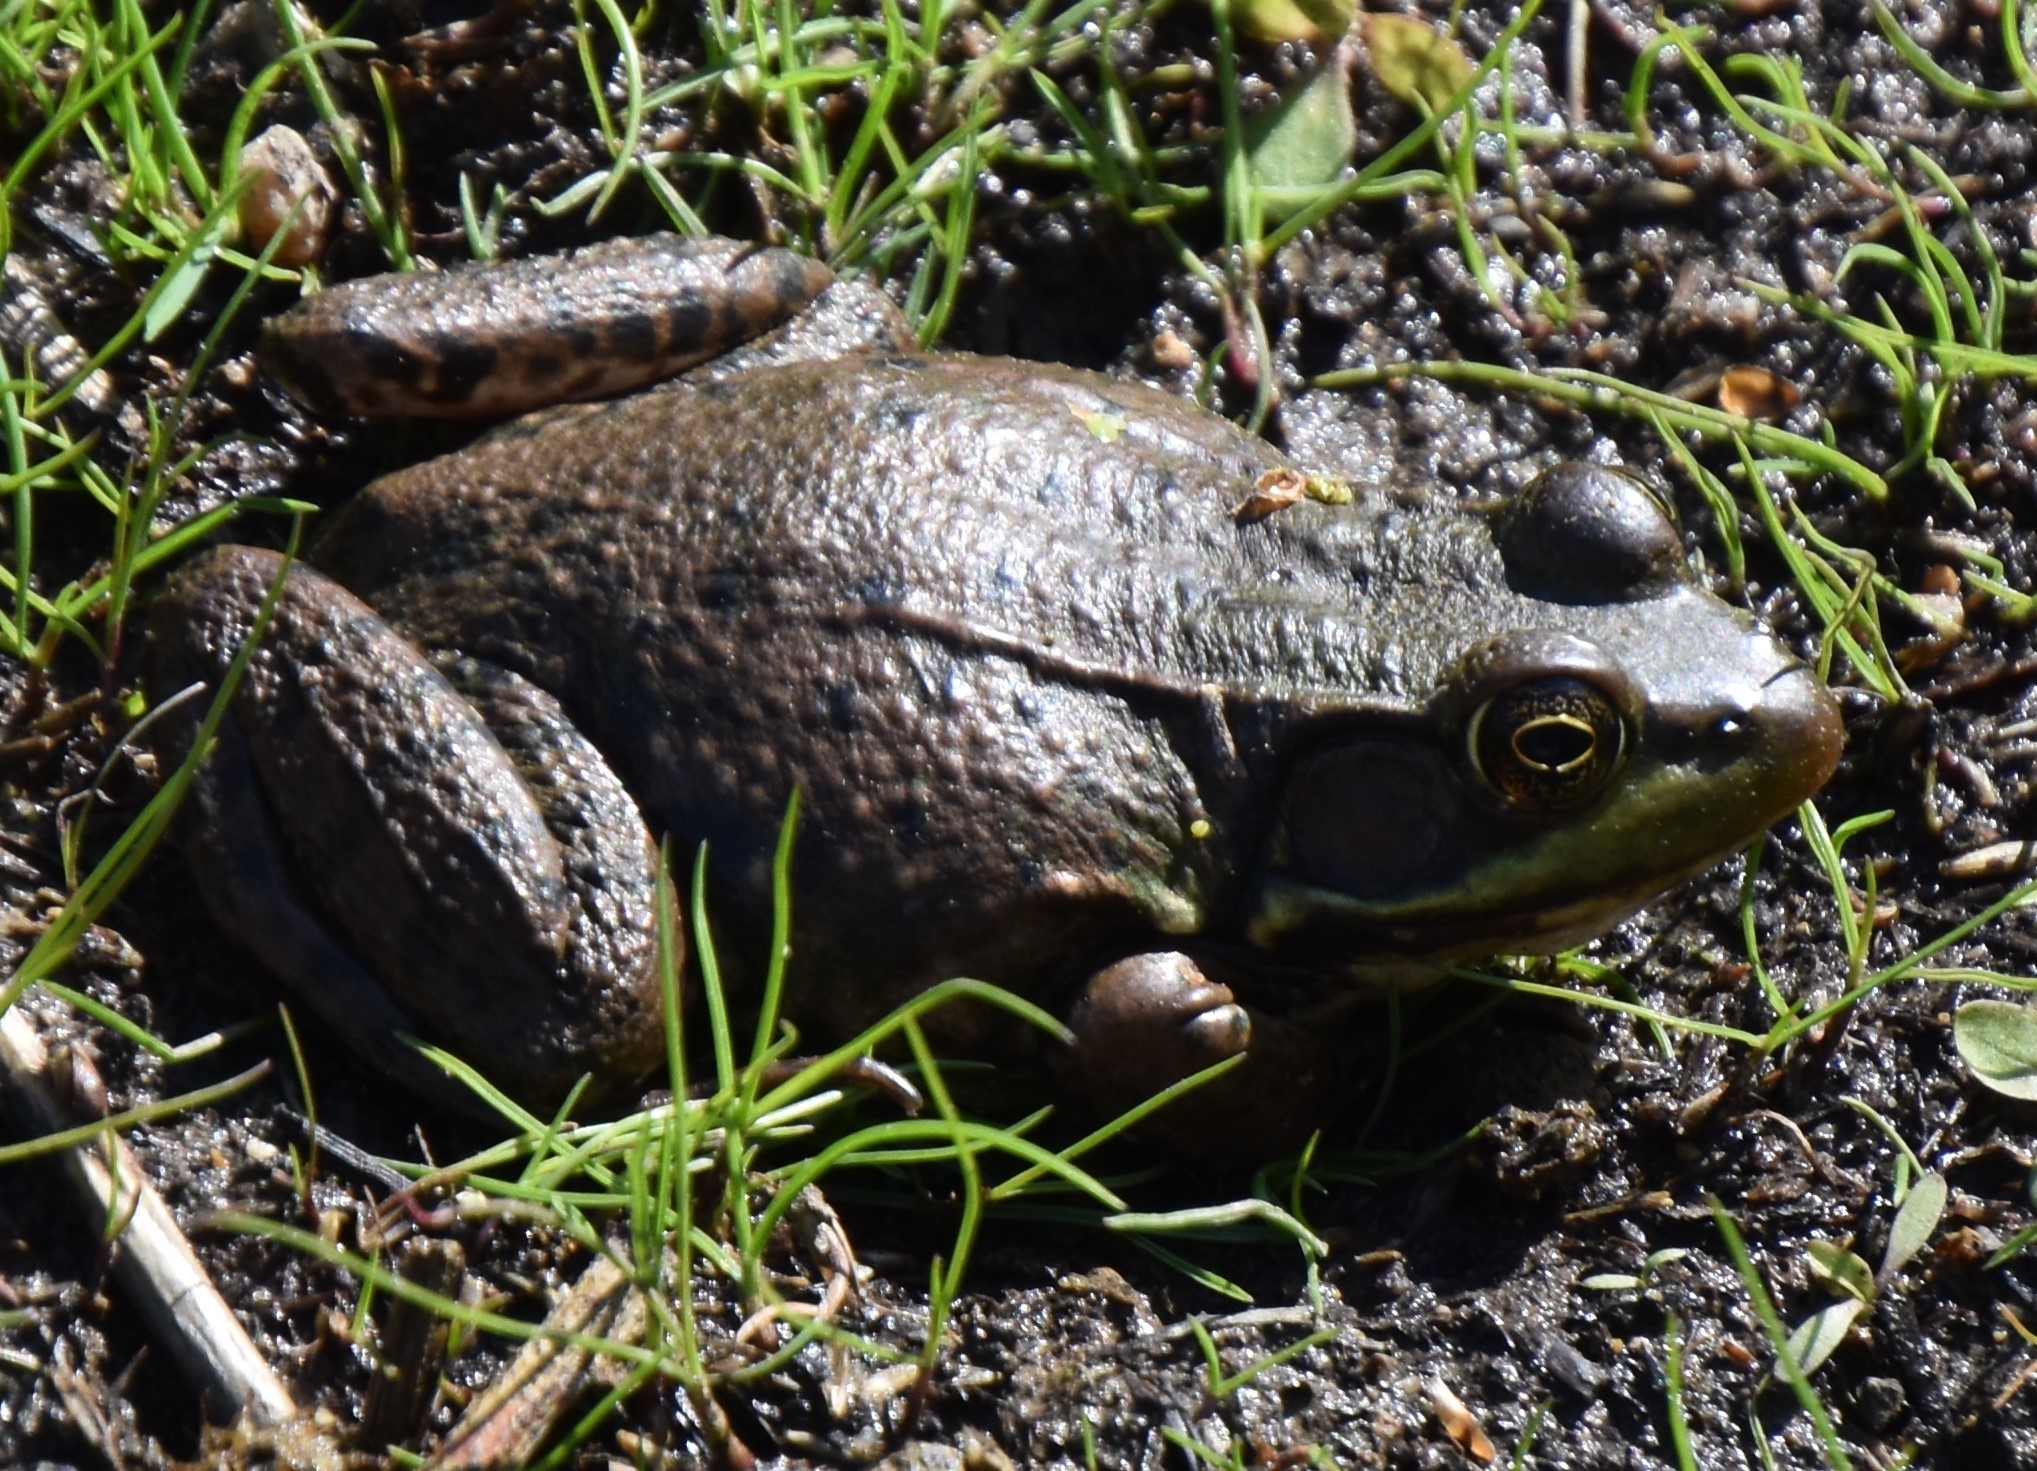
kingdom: Animalia
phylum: Chordata
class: Amphibia
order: Anura
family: Ranidae
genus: Lithobates
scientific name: Lithobates clamitans
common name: Green frog
